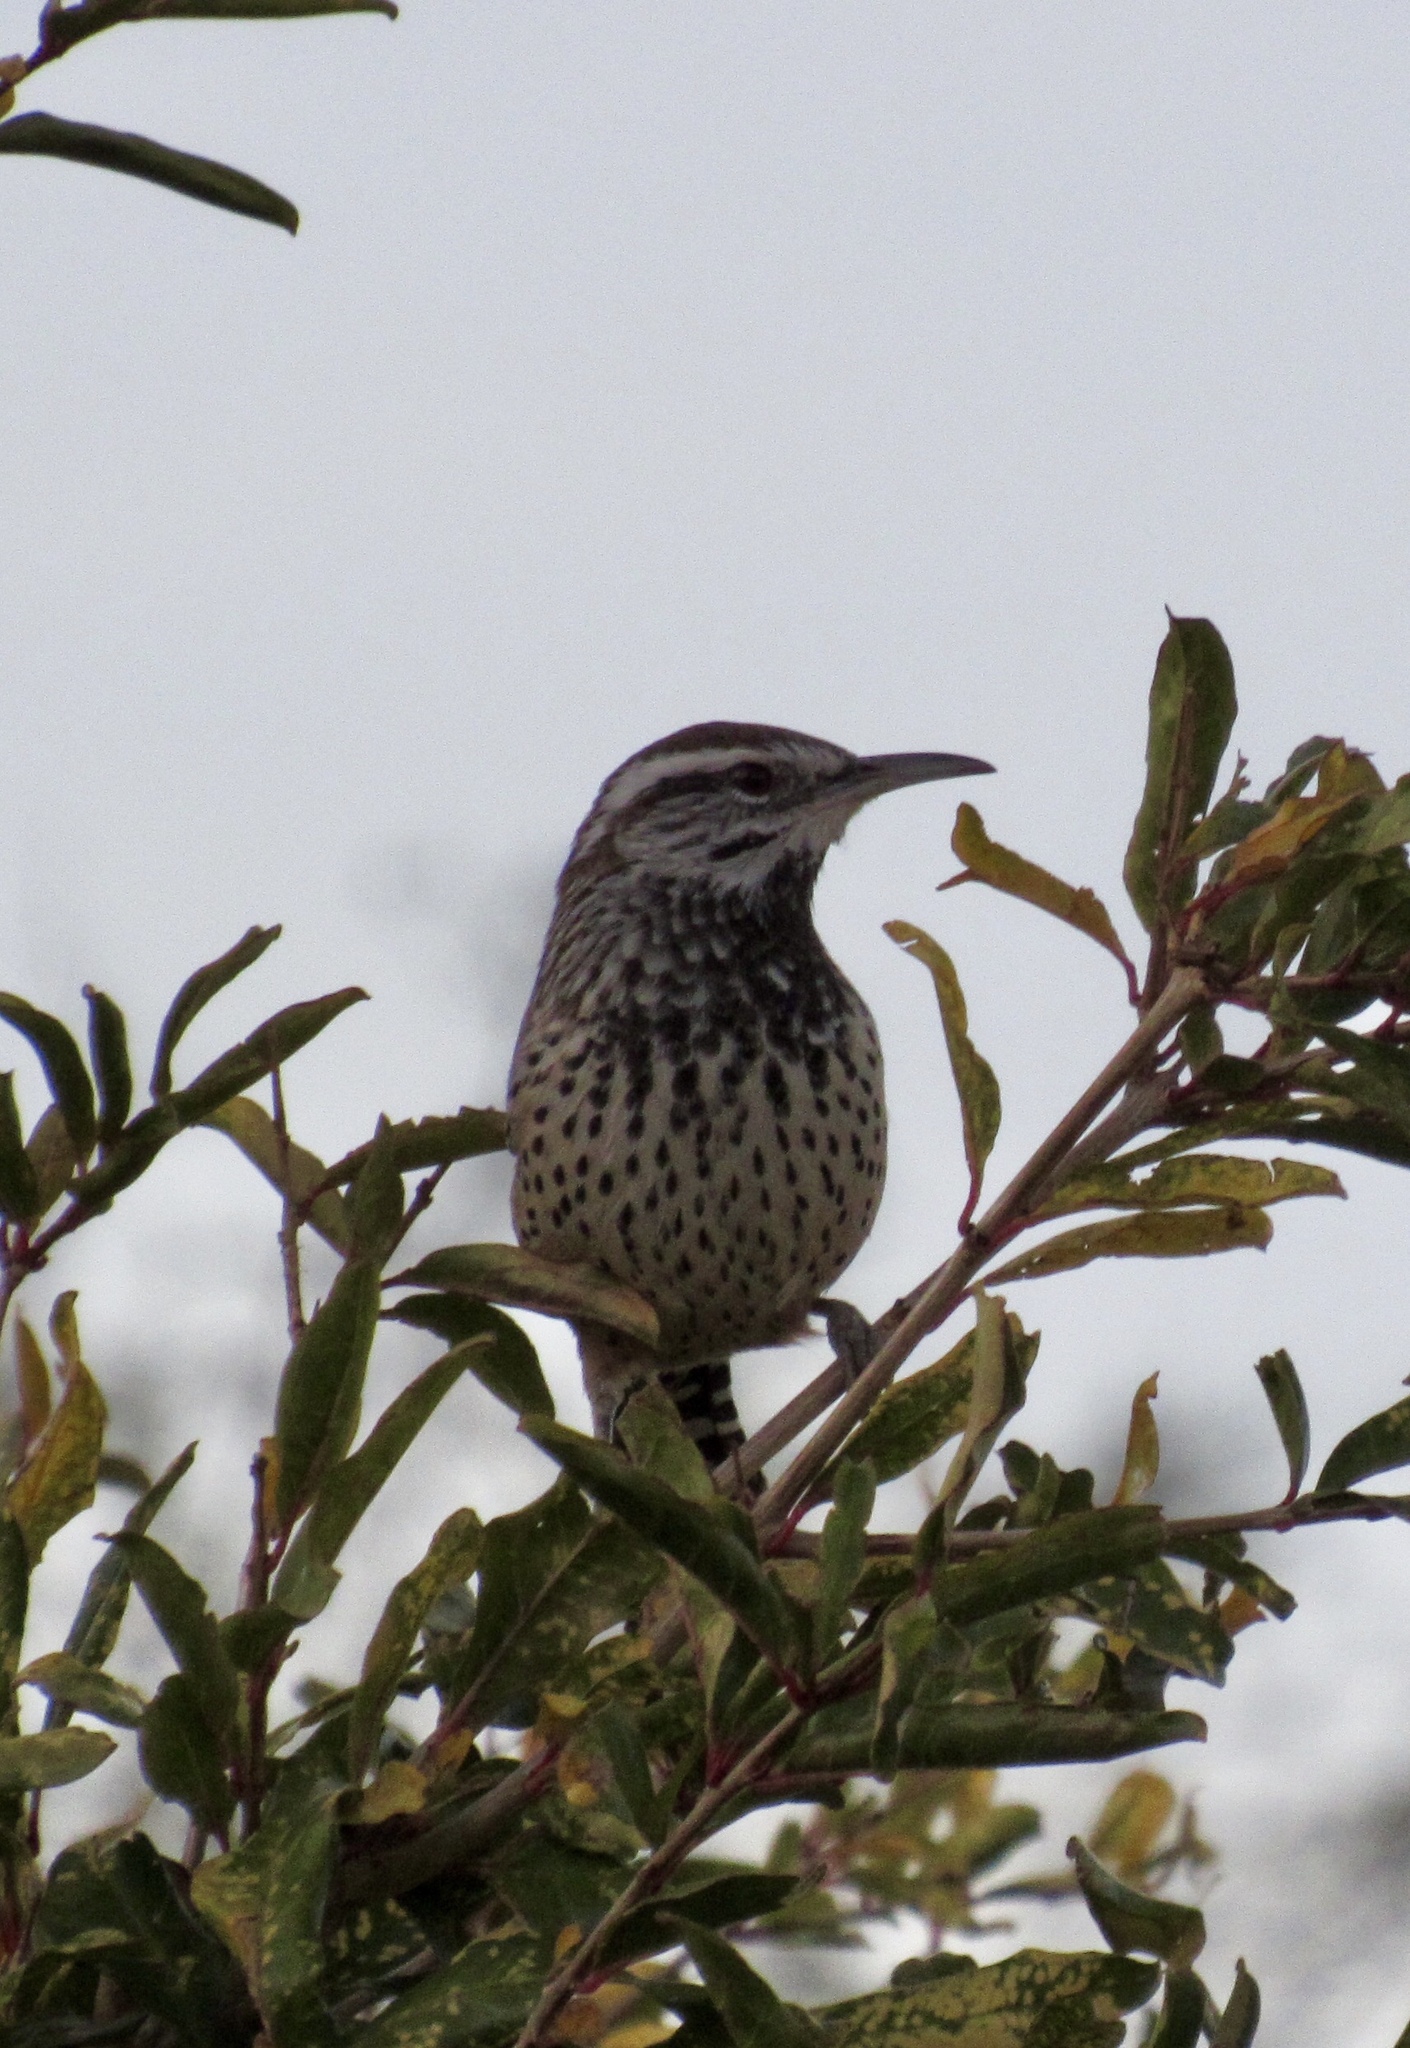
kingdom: Animalia
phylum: Chordata
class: Aves
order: Passeriformes
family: Troglodytidae
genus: Campylorhynchus
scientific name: Campylorhynchus brunneicapillus
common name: Cactus wren
